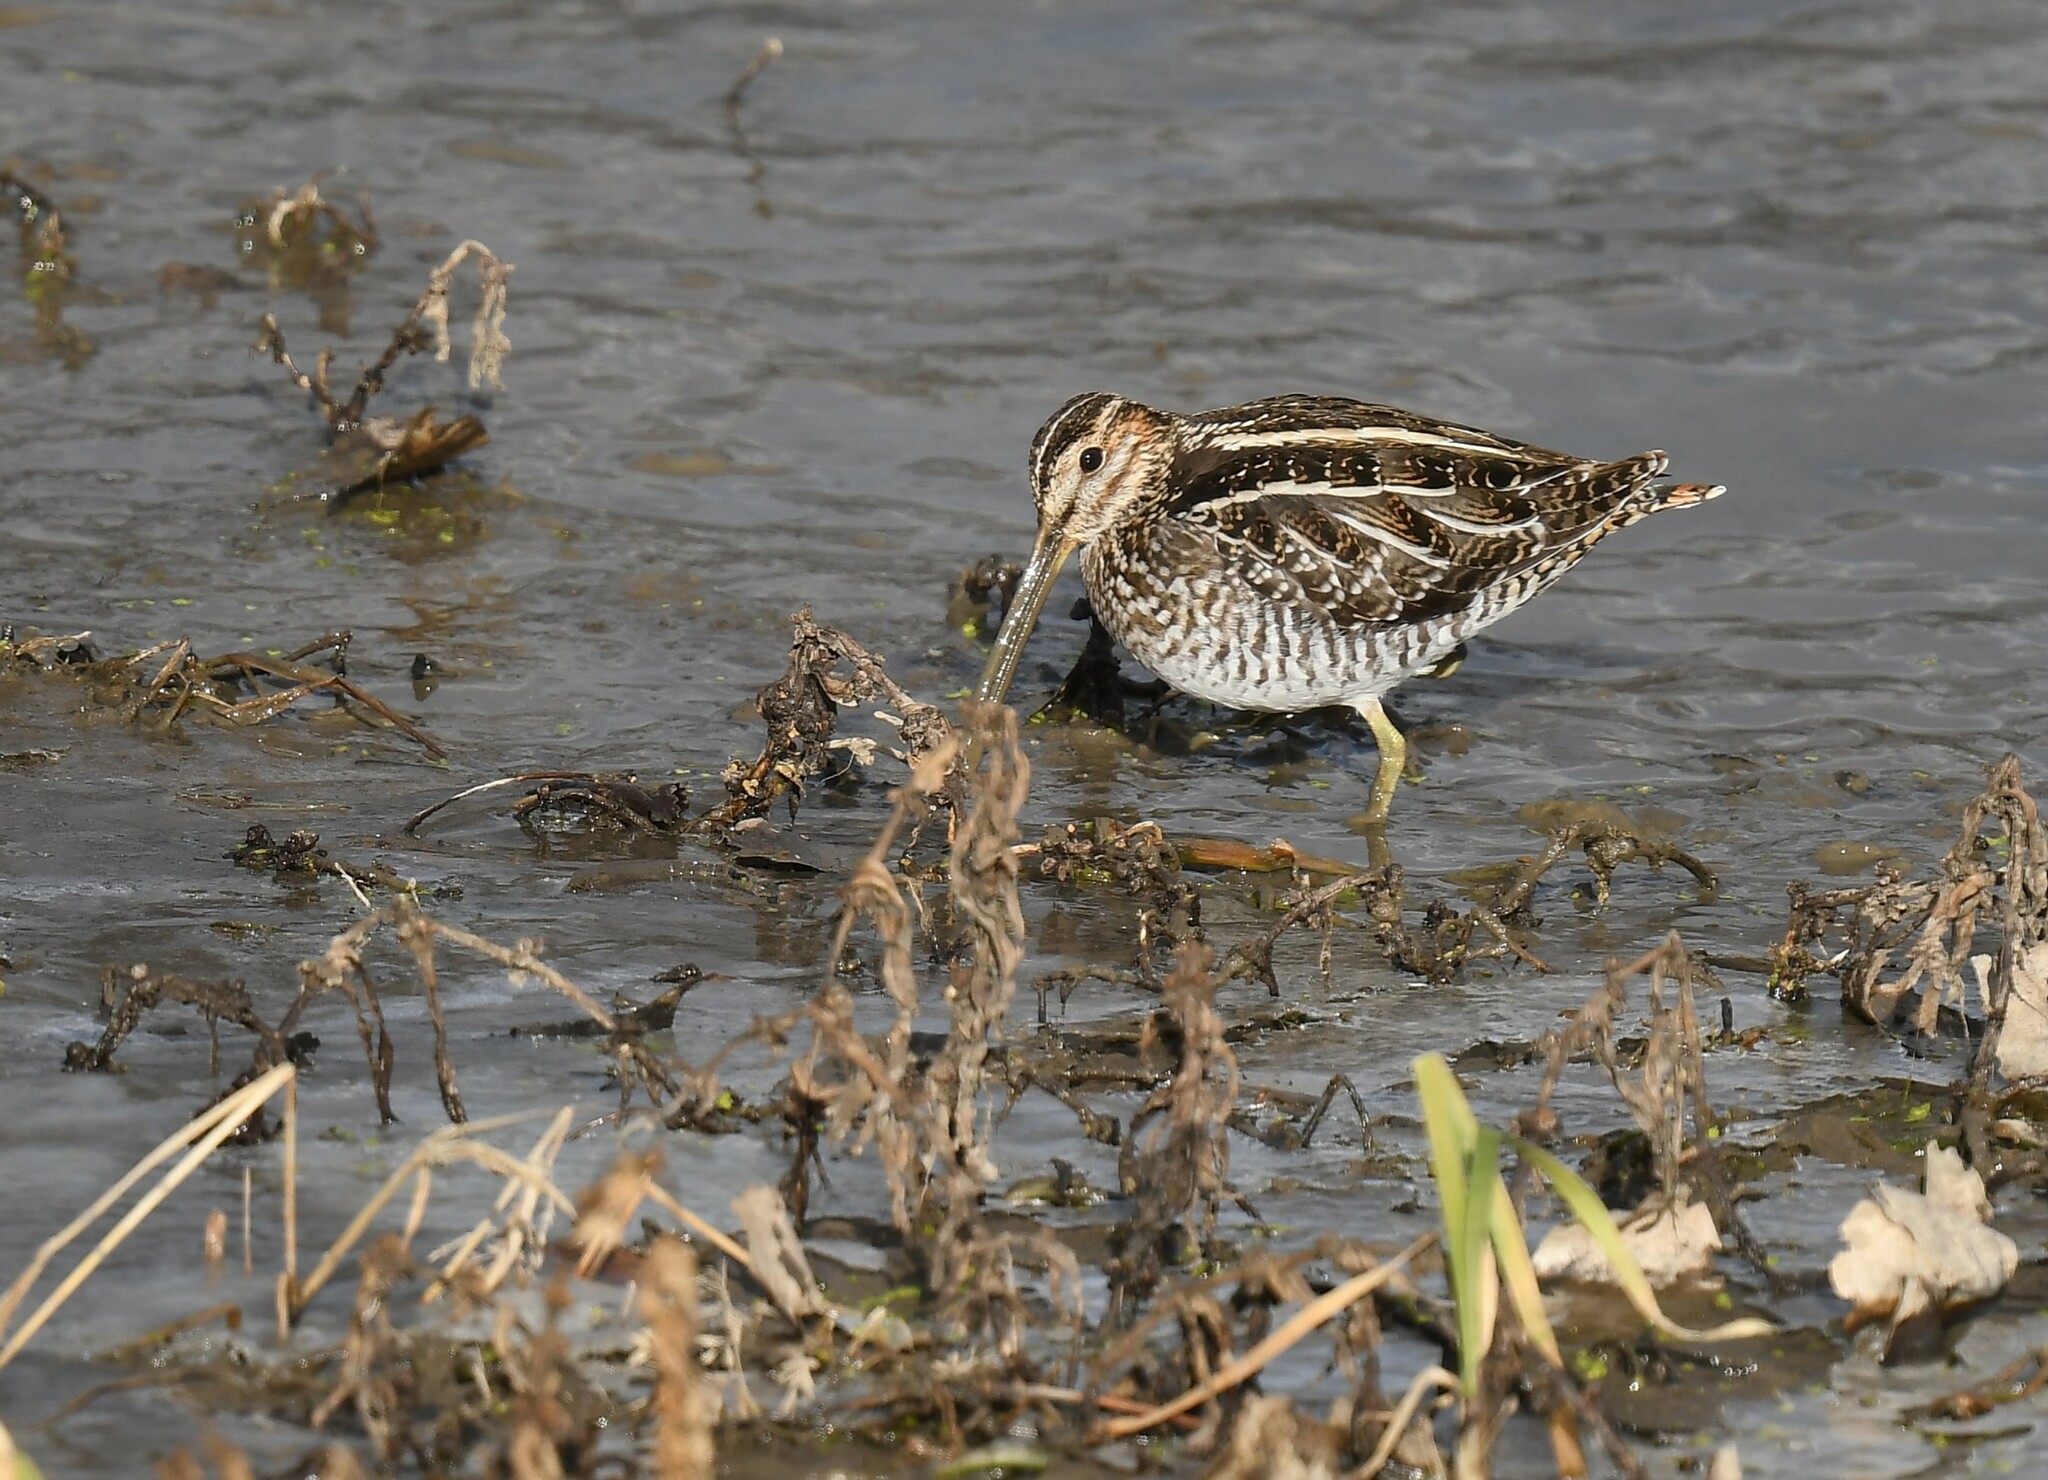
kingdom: Animalia
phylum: Chordata
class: Aves
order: Charadriiformes
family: Scolopacidae
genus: Gallinago
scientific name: Gallinago delicata
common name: Wilson's snipe
